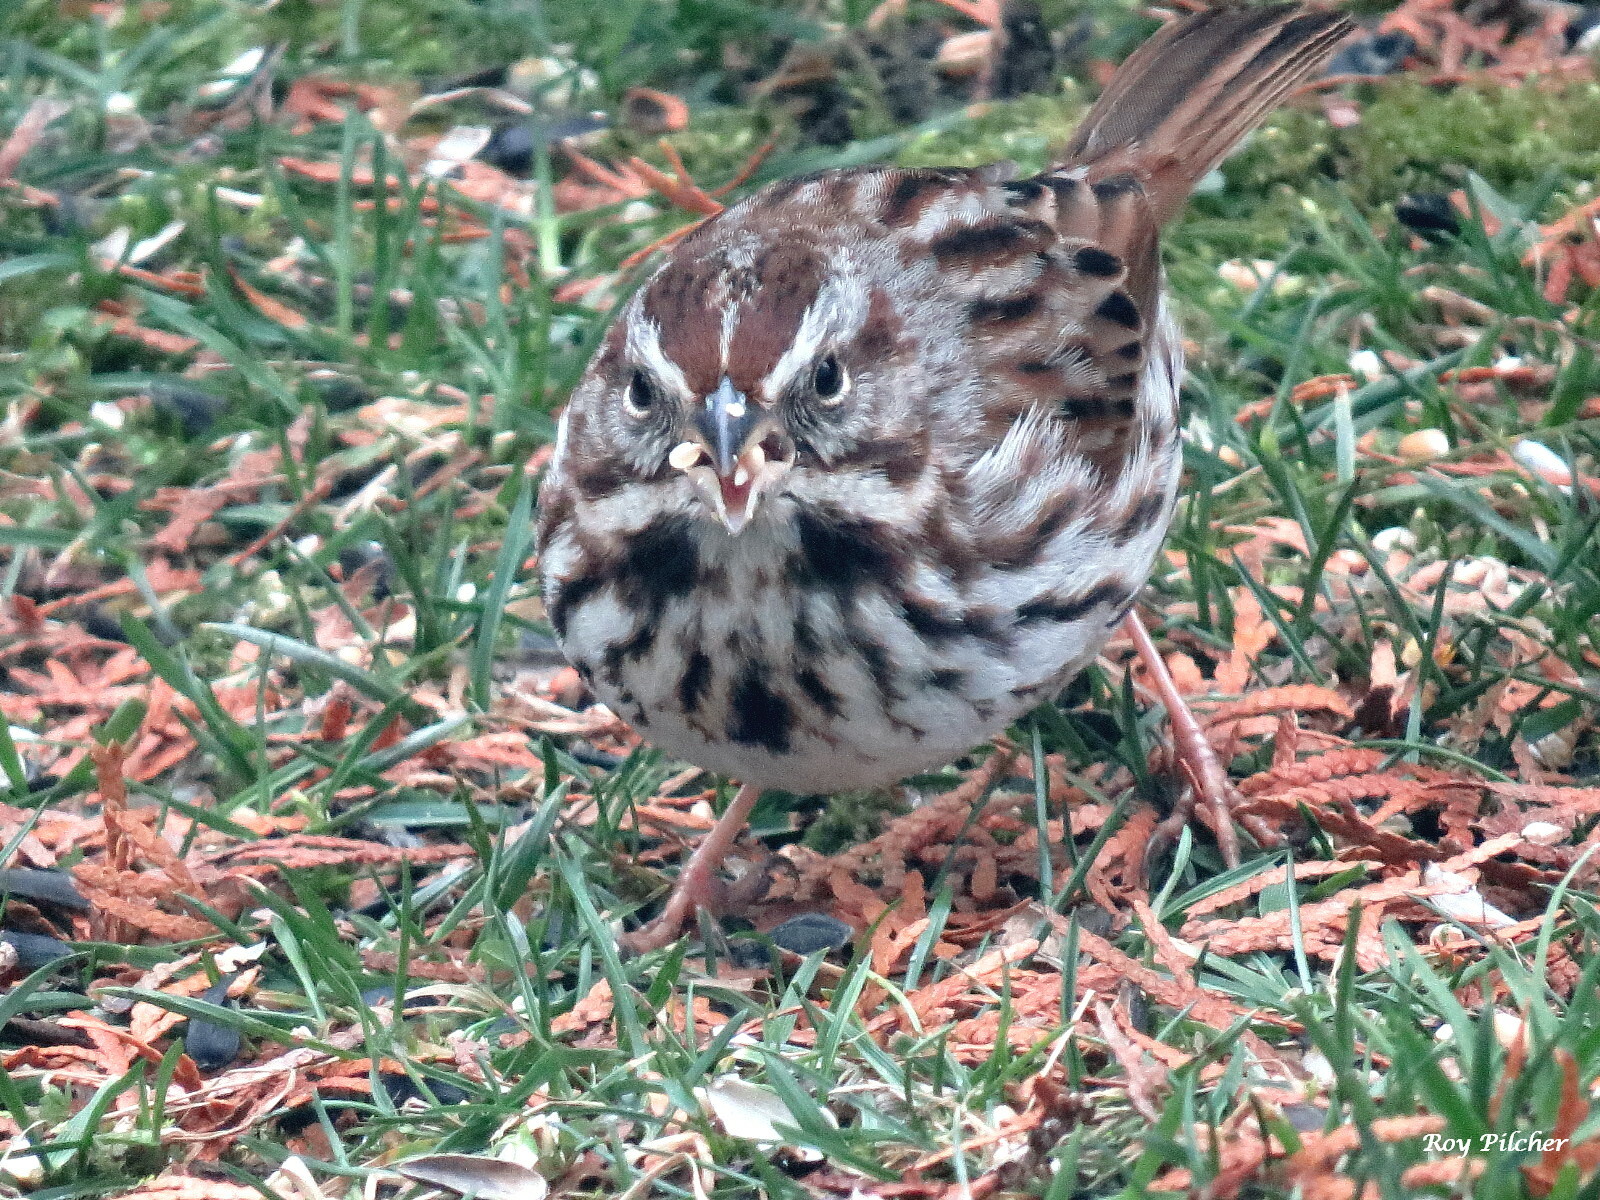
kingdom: Animalia
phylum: Chordata
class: Aves
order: Passeriformes
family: Passerellidae
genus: Melospiza
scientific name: Melospiza melodia
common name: Song sparrow
